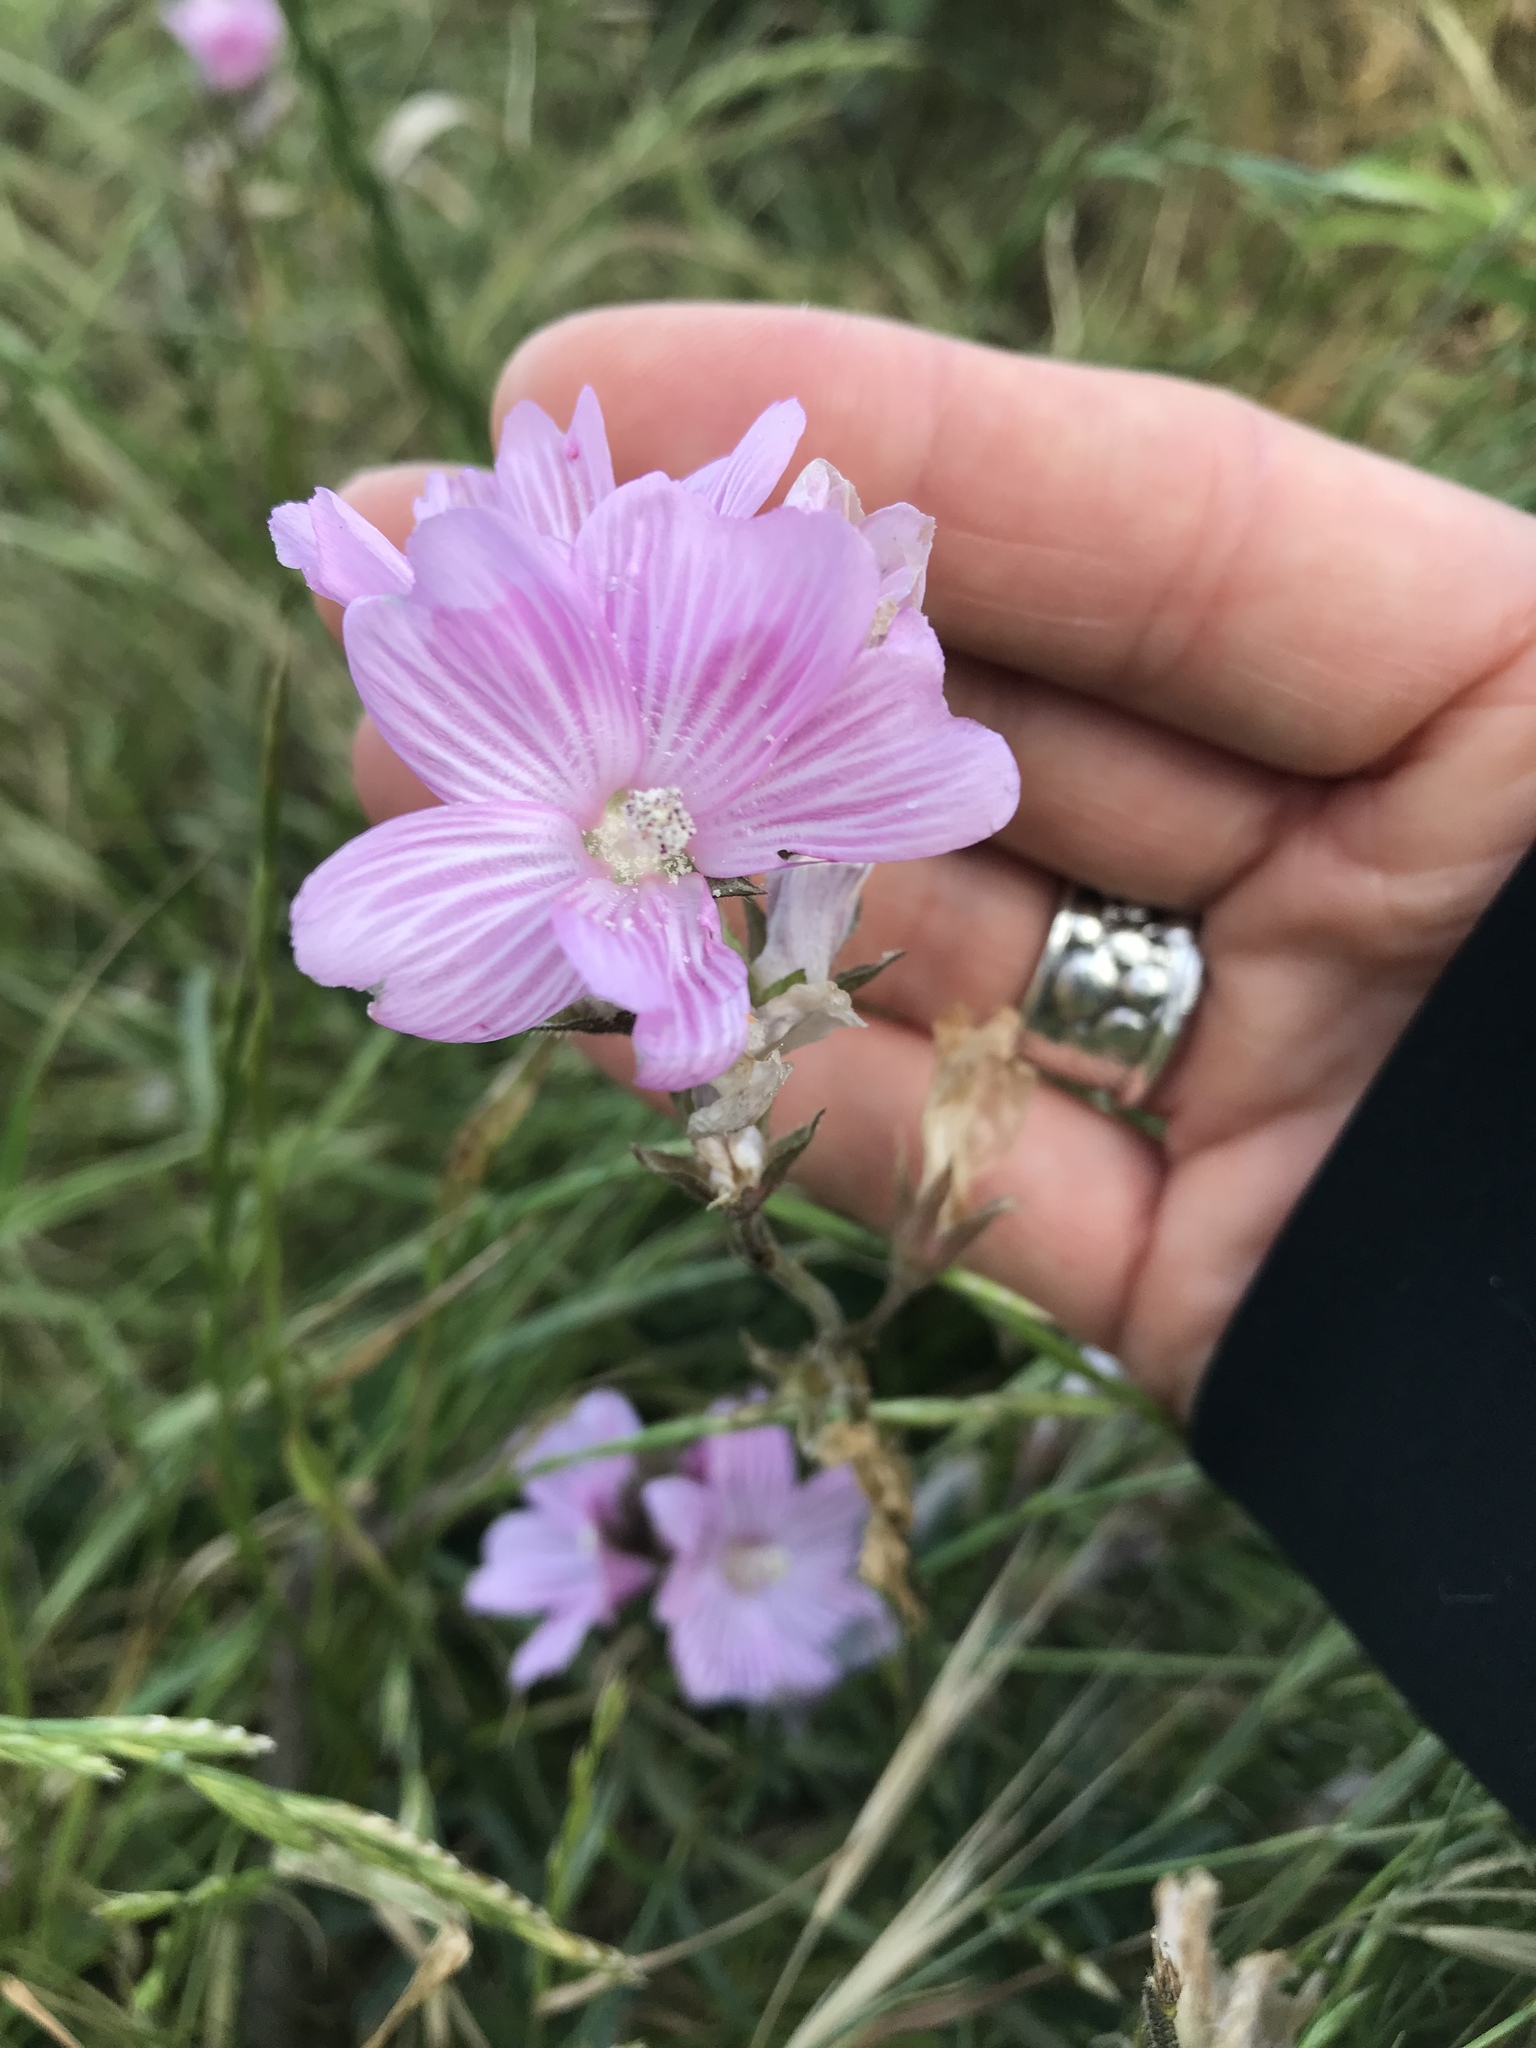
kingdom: Plantae
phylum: Tracheophyta
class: Magnoliopsida
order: Malvales
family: Malvaceae
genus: Sidalcea
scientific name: Sidalcea malviflora
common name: Greek mallow
